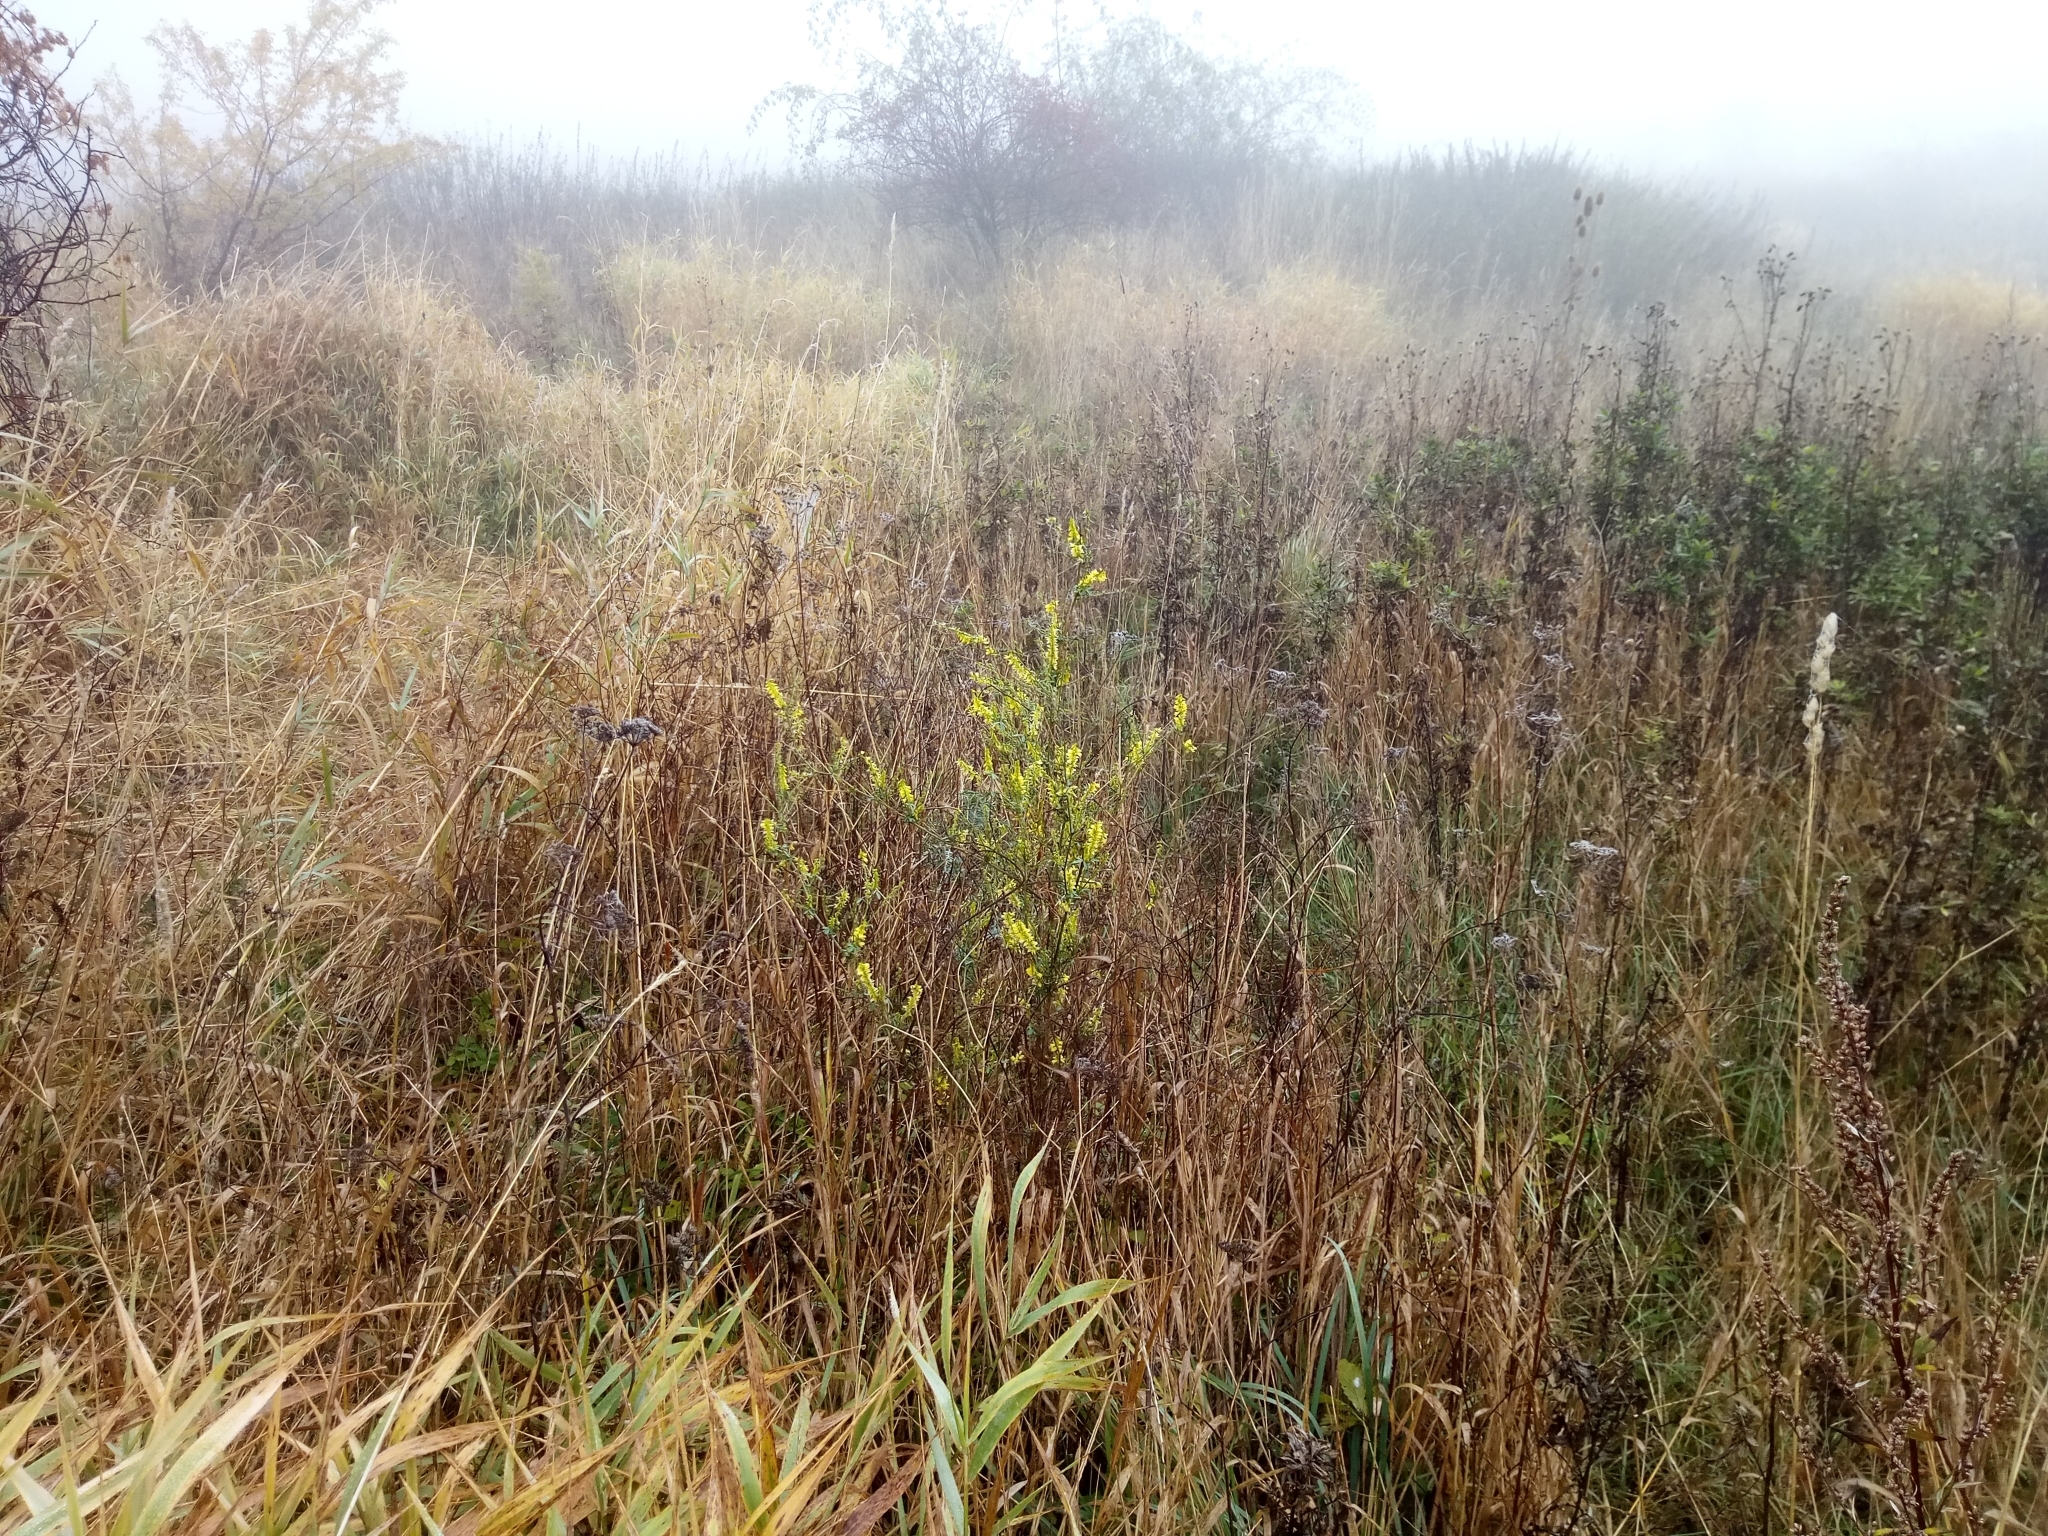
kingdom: Plantae
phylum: Tracheophyta
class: Magnoliopsida
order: Fabales
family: Fabaceae
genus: Melilotus
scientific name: Melilotus officinalis
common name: Sweetclover
